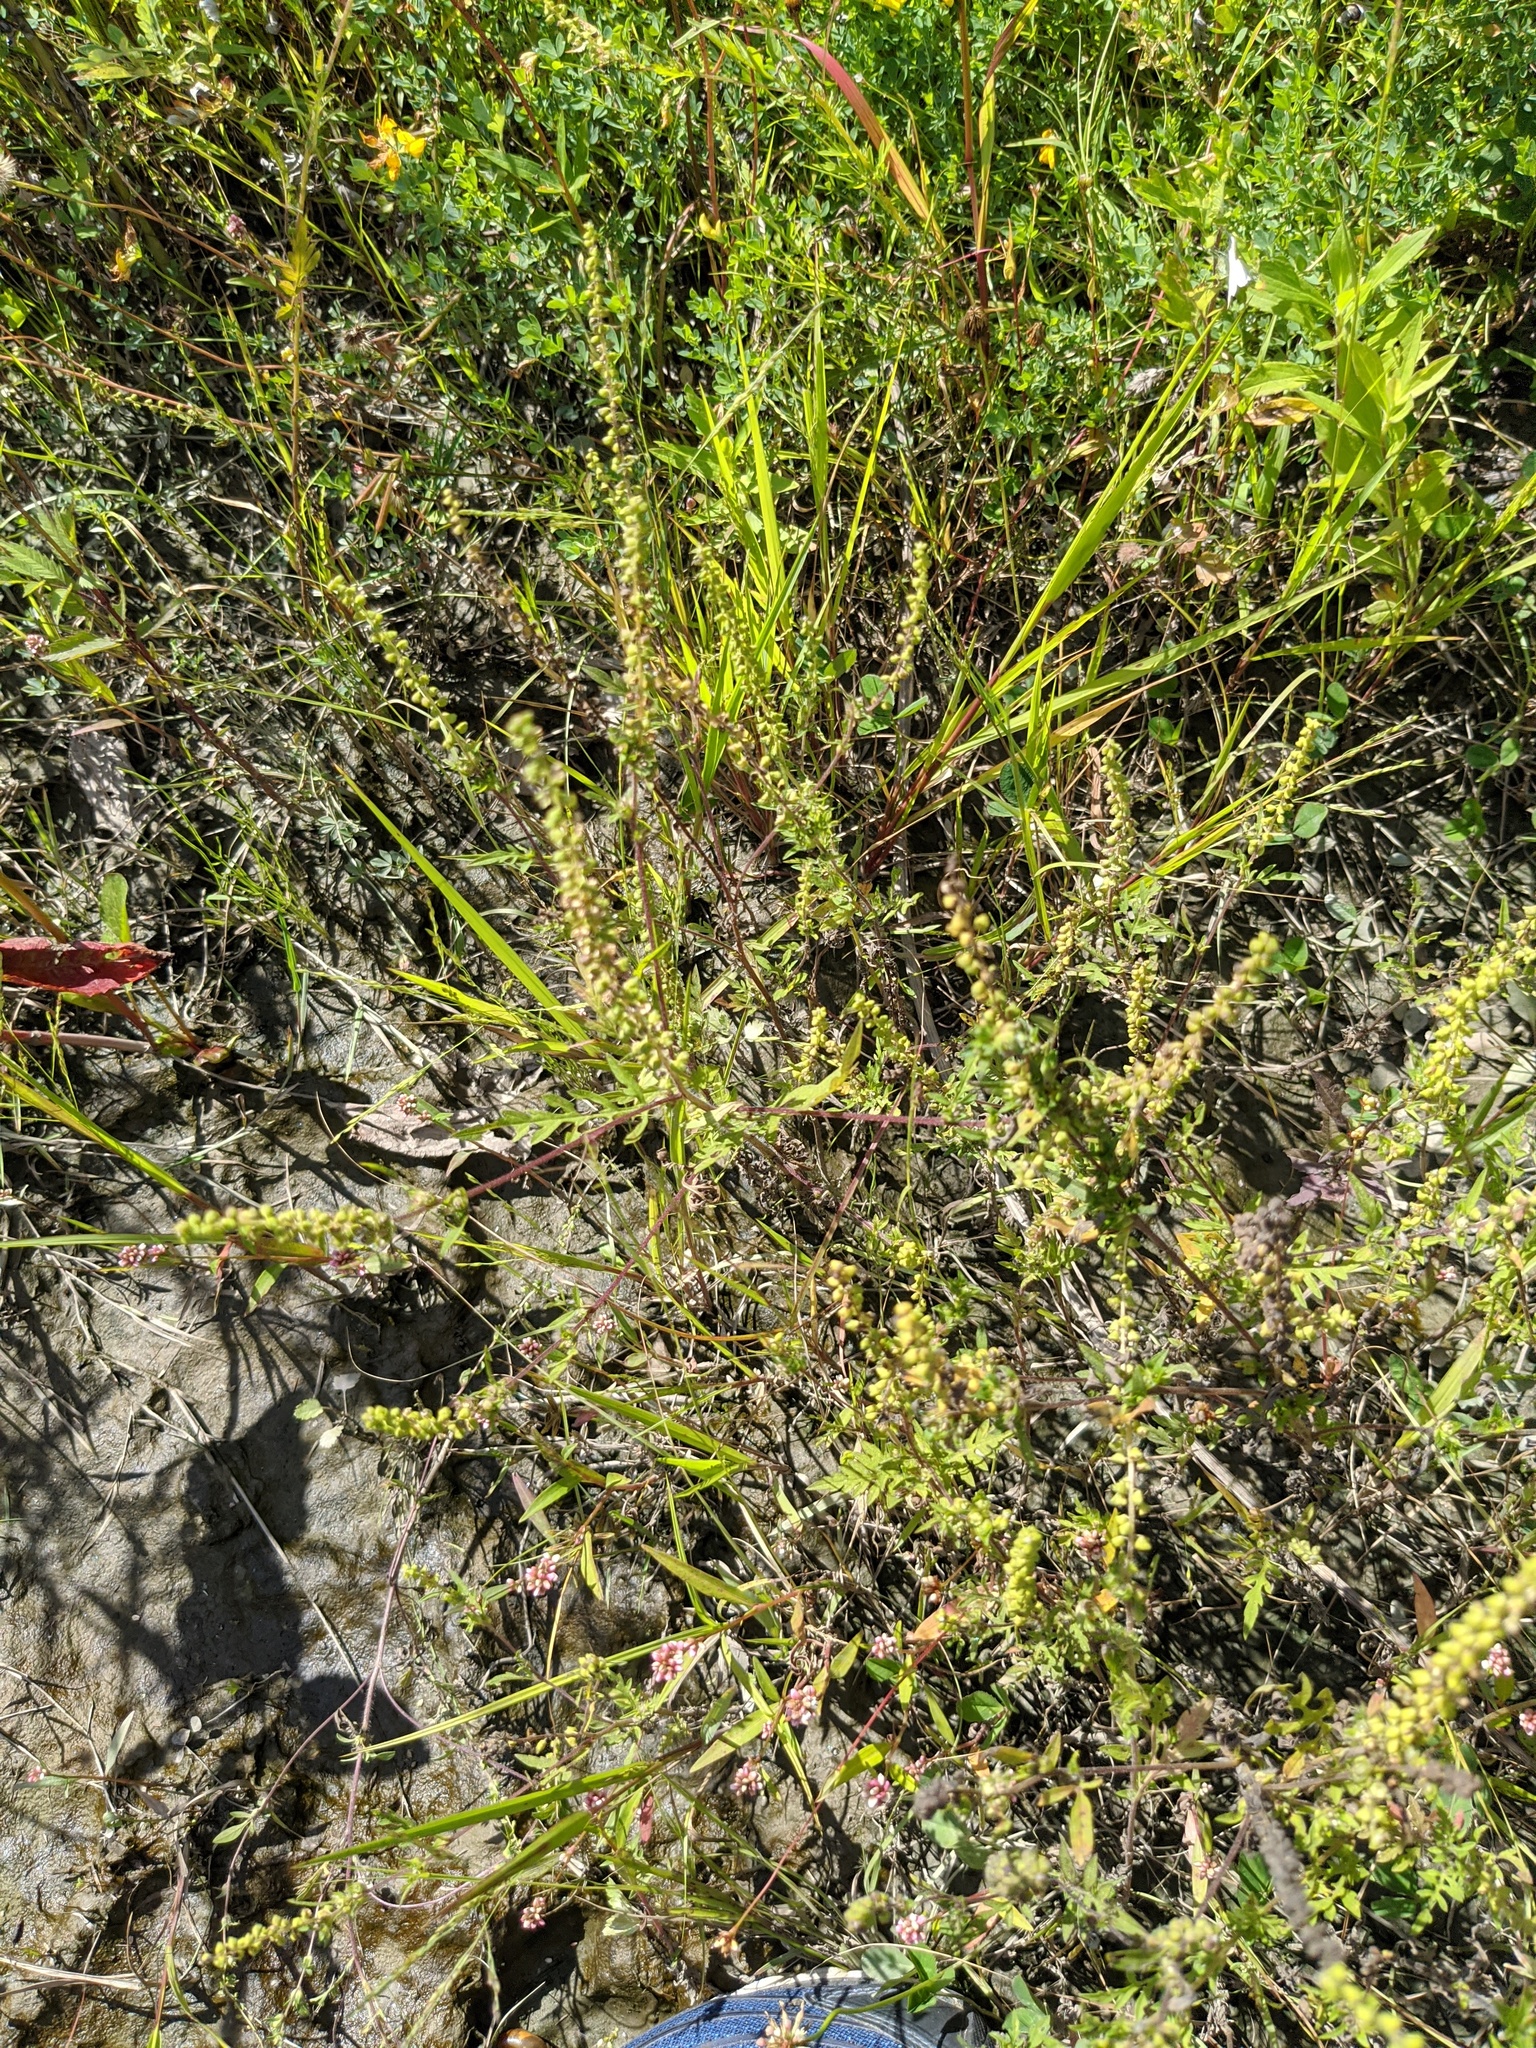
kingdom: Plantae
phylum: Tracheophyta
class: Magnoliopsida
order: Asterales
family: Asteraceae
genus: Ambrosia
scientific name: Ambrosia artemisiifolia
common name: Annual ragweed
